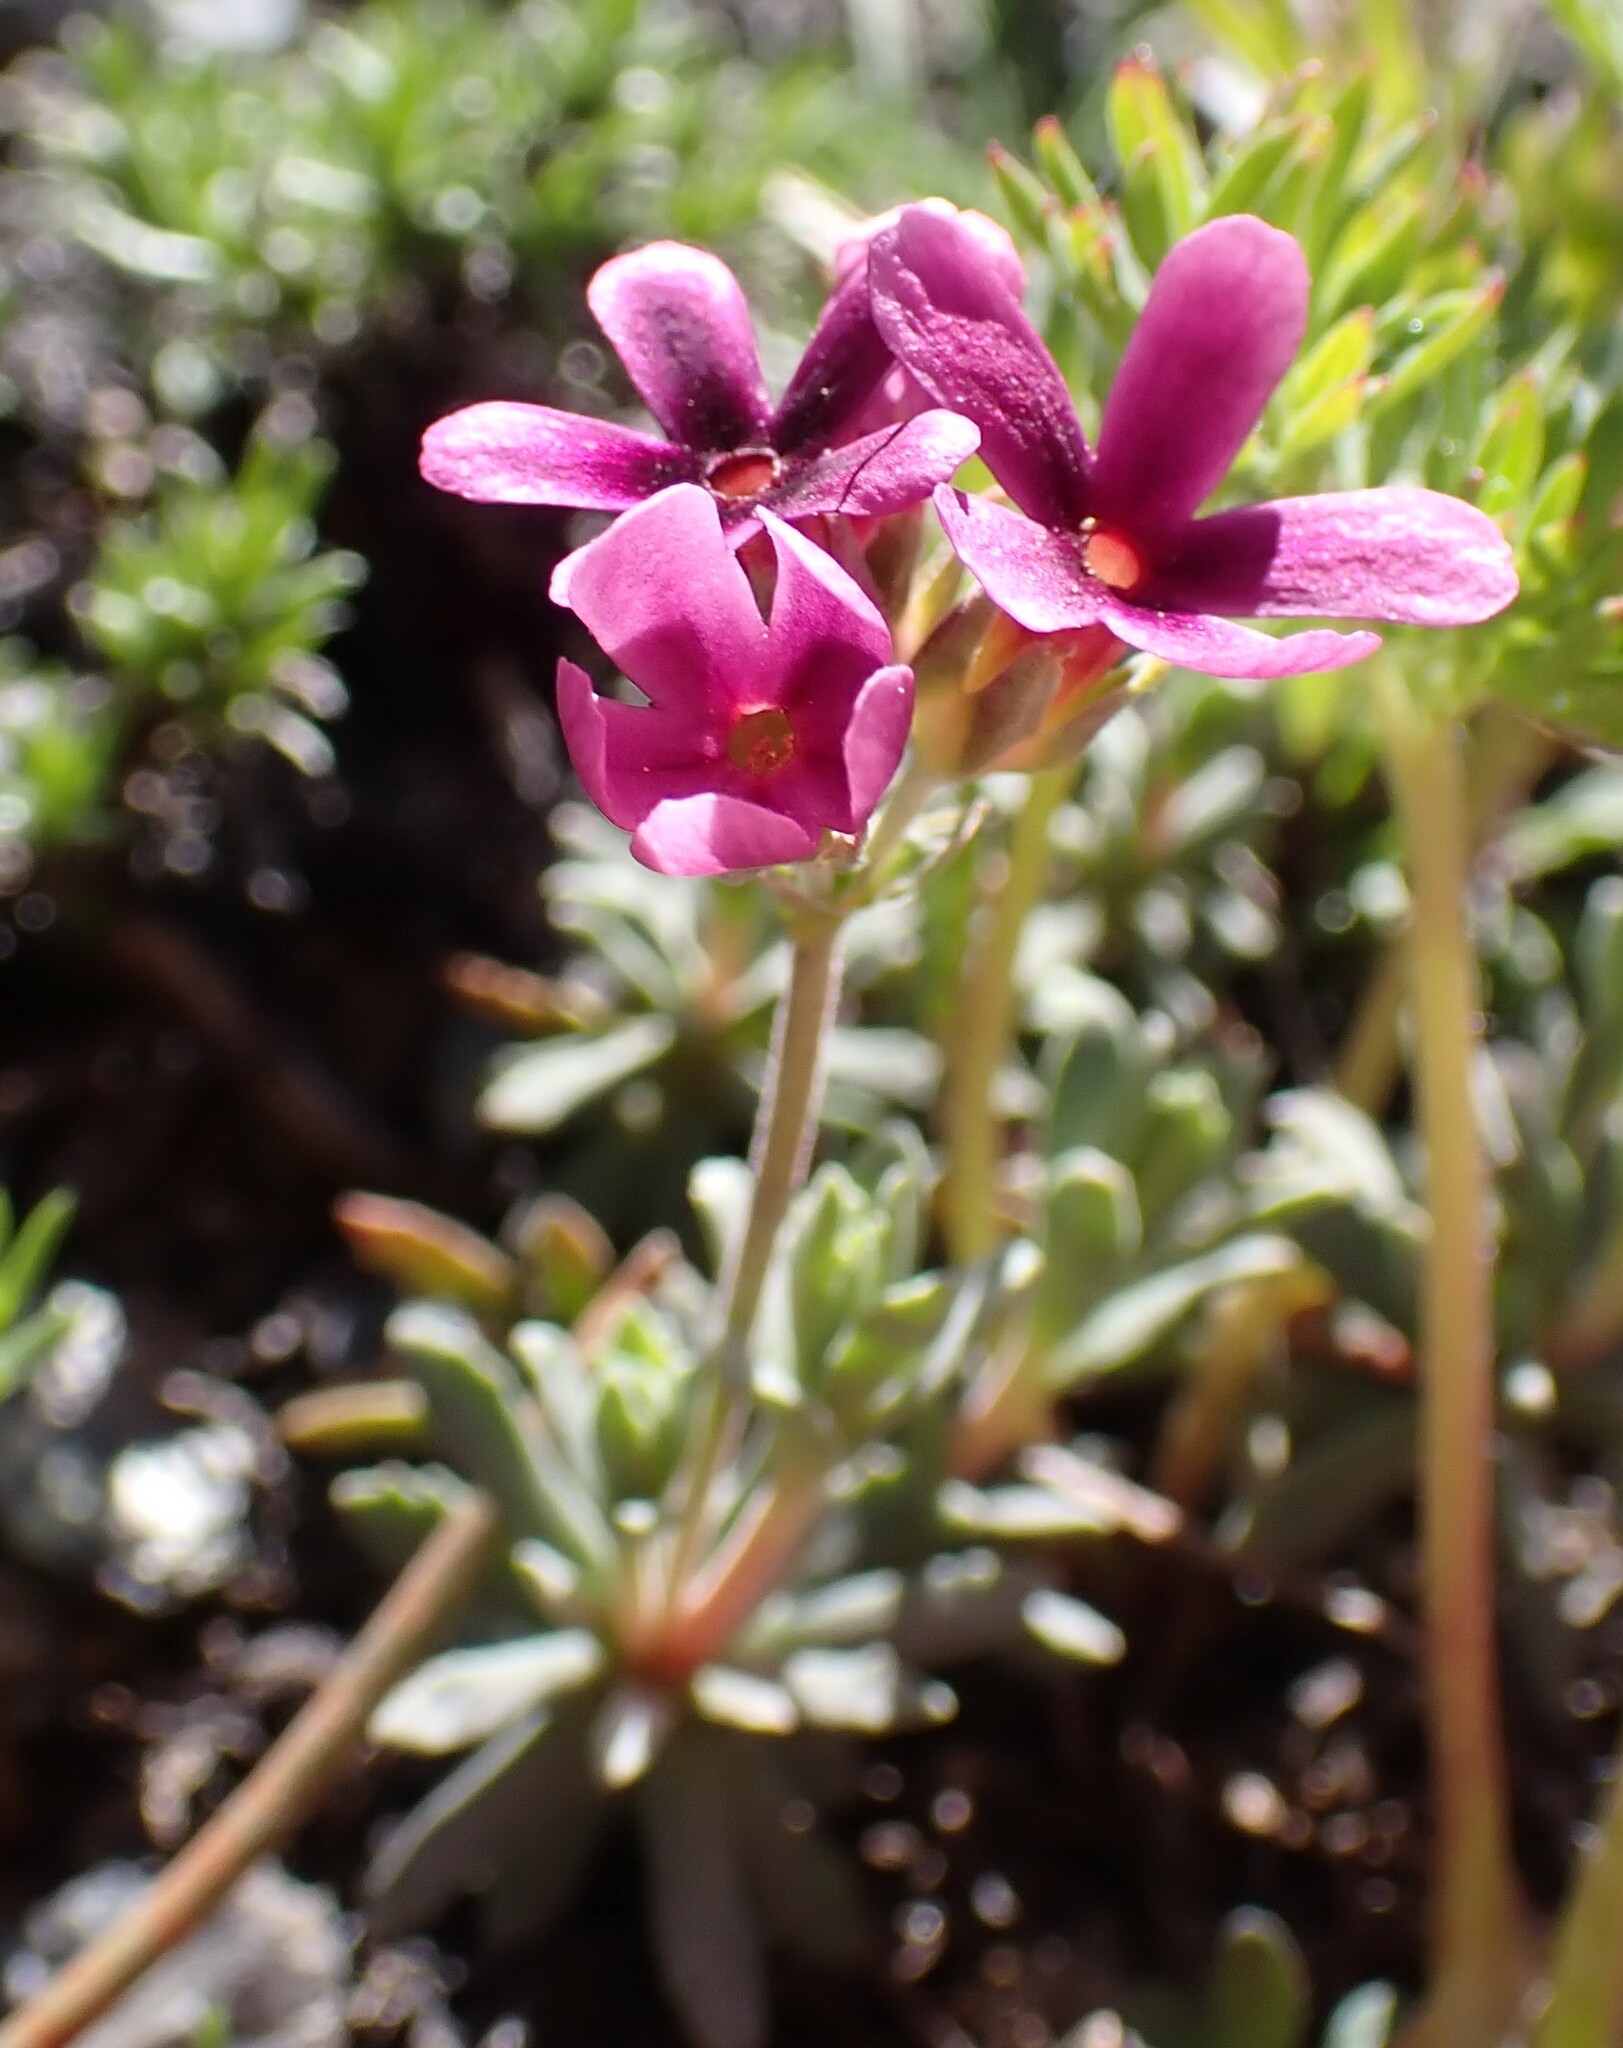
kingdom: Plantae
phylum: Tracheophyta
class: Magnoliopsida
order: Ericales
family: Primulaceae
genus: Androsace
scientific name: Androsace nivalis
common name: Snow dwarf-primrose
